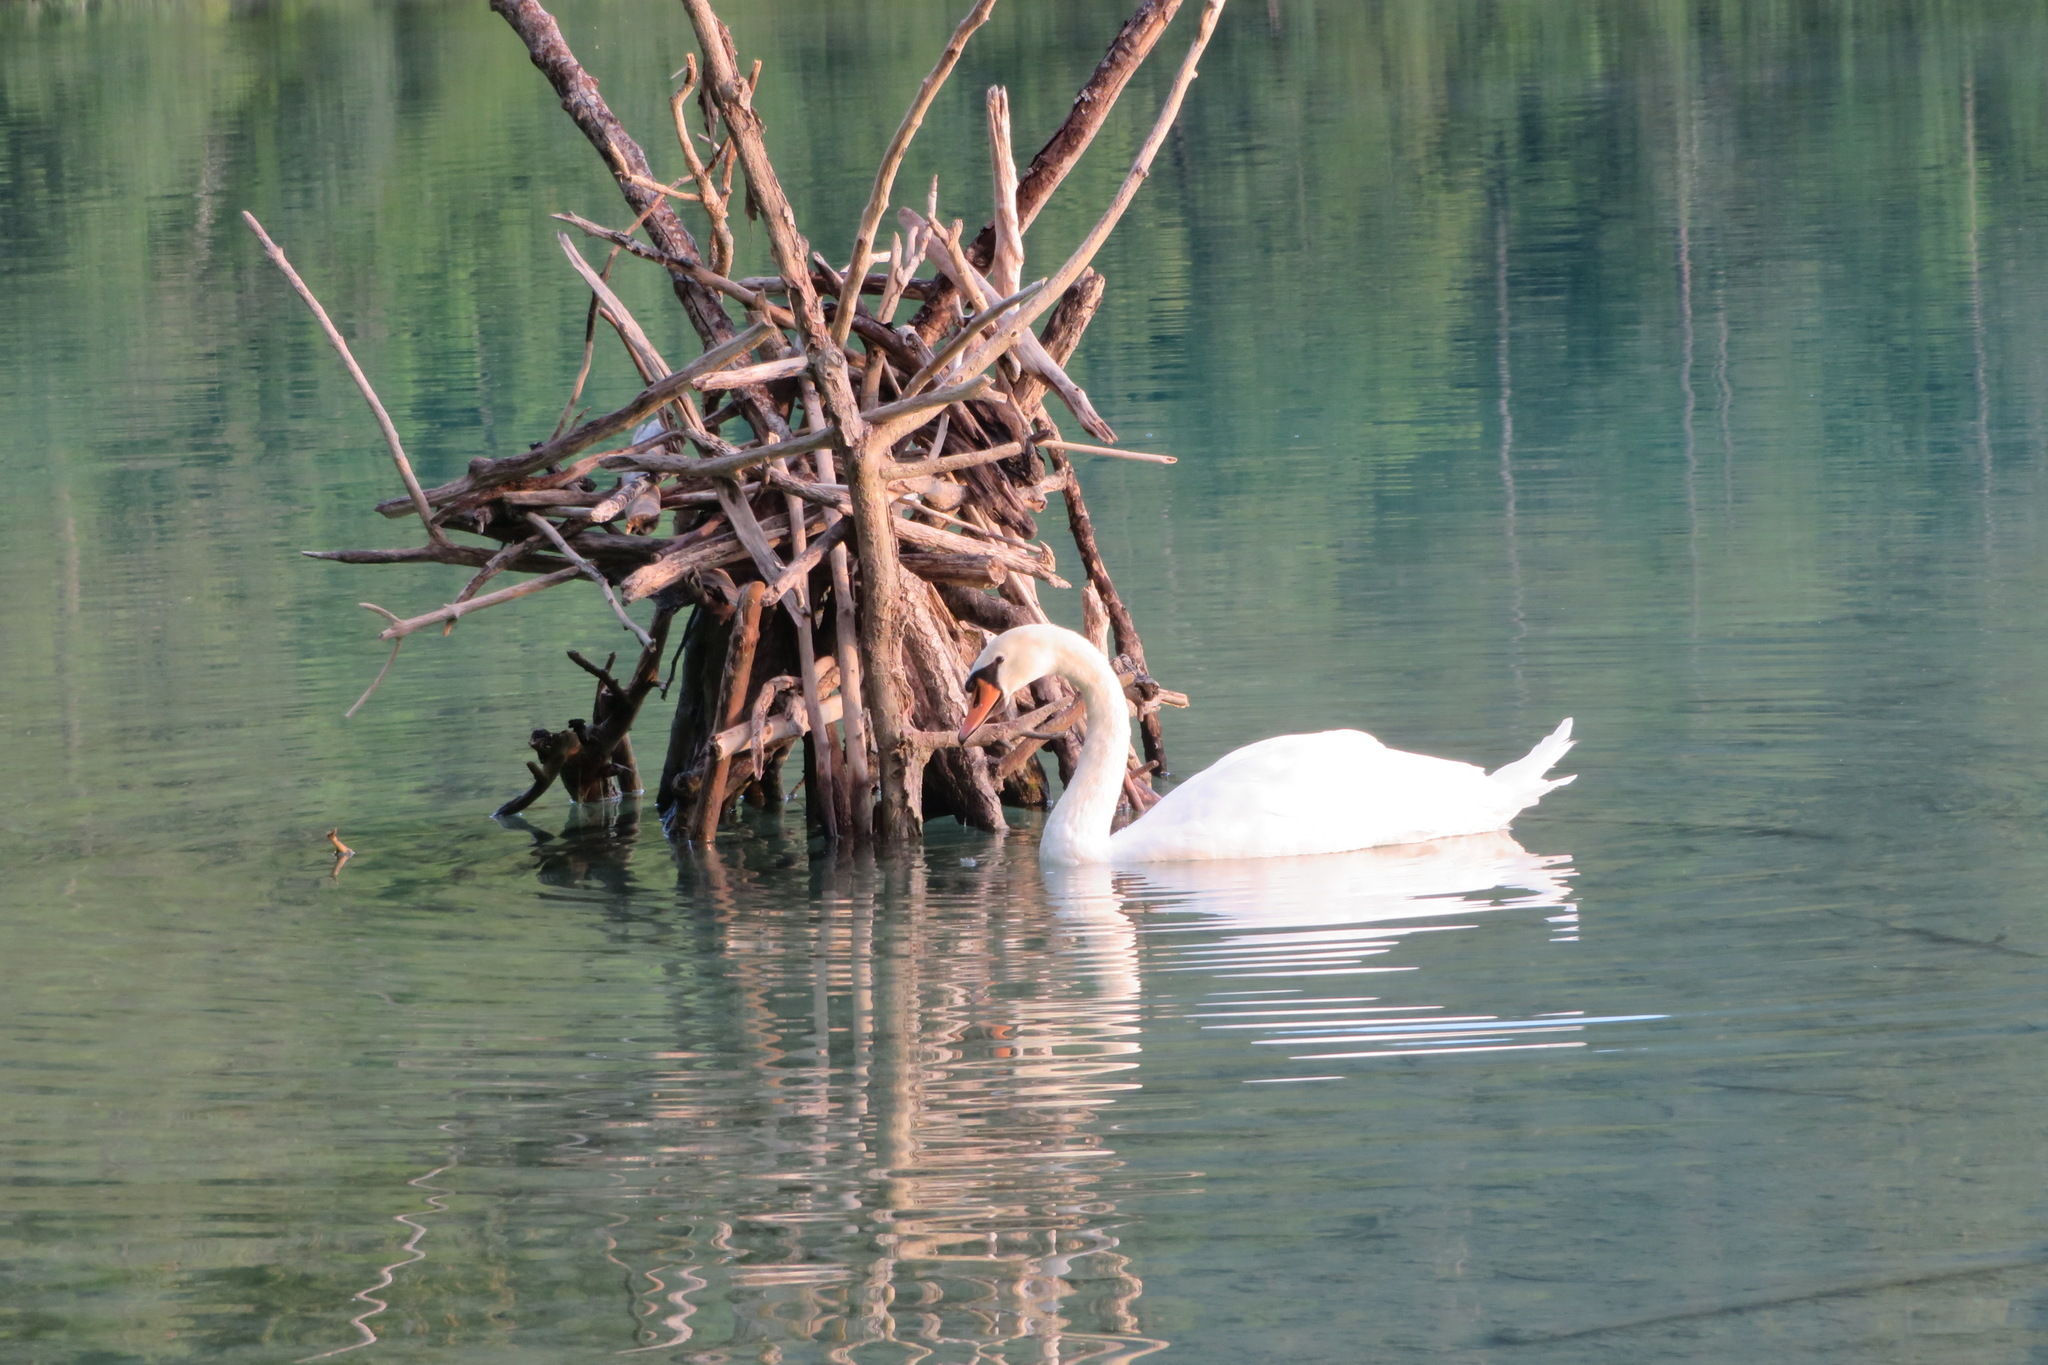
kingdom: Animalia
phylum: Chordata
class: Aves
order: Anseriformes
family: Anatidae
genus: Cygnus
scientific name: Cygnus olor
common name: Mute swan
